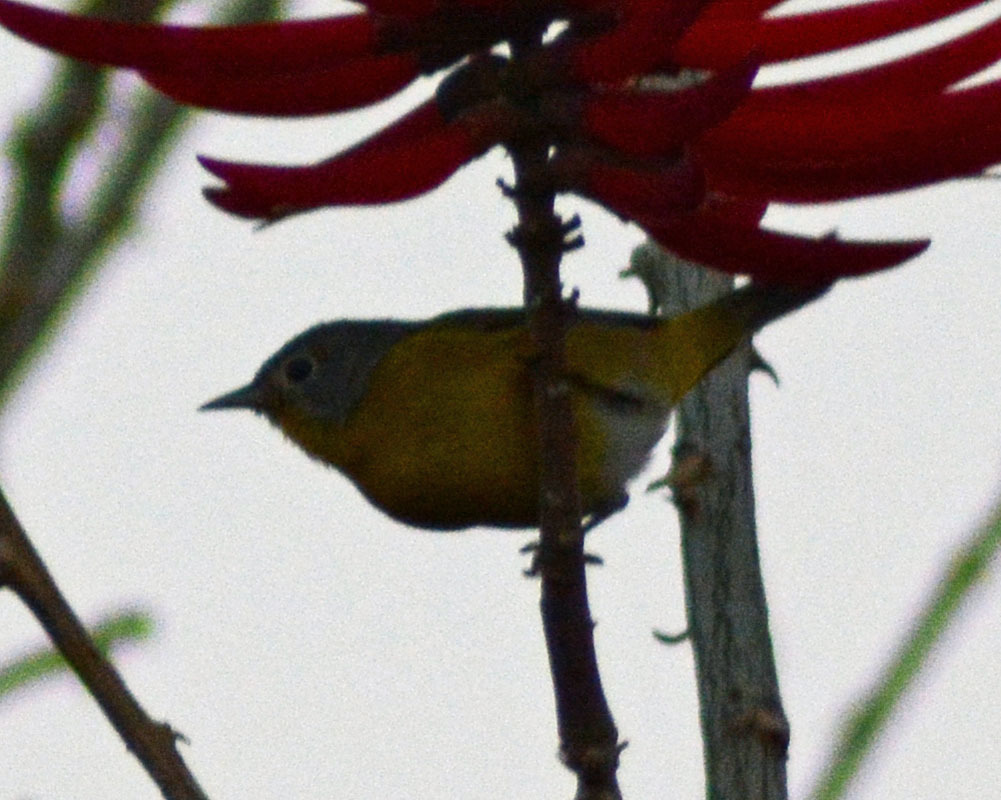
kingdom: Animalia
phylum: Chordata
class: Aves
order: Passeriformes
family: Parulidae
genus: Leiothlypis
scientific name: Leiothlypis ruficapilla
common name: Nashville warbler
